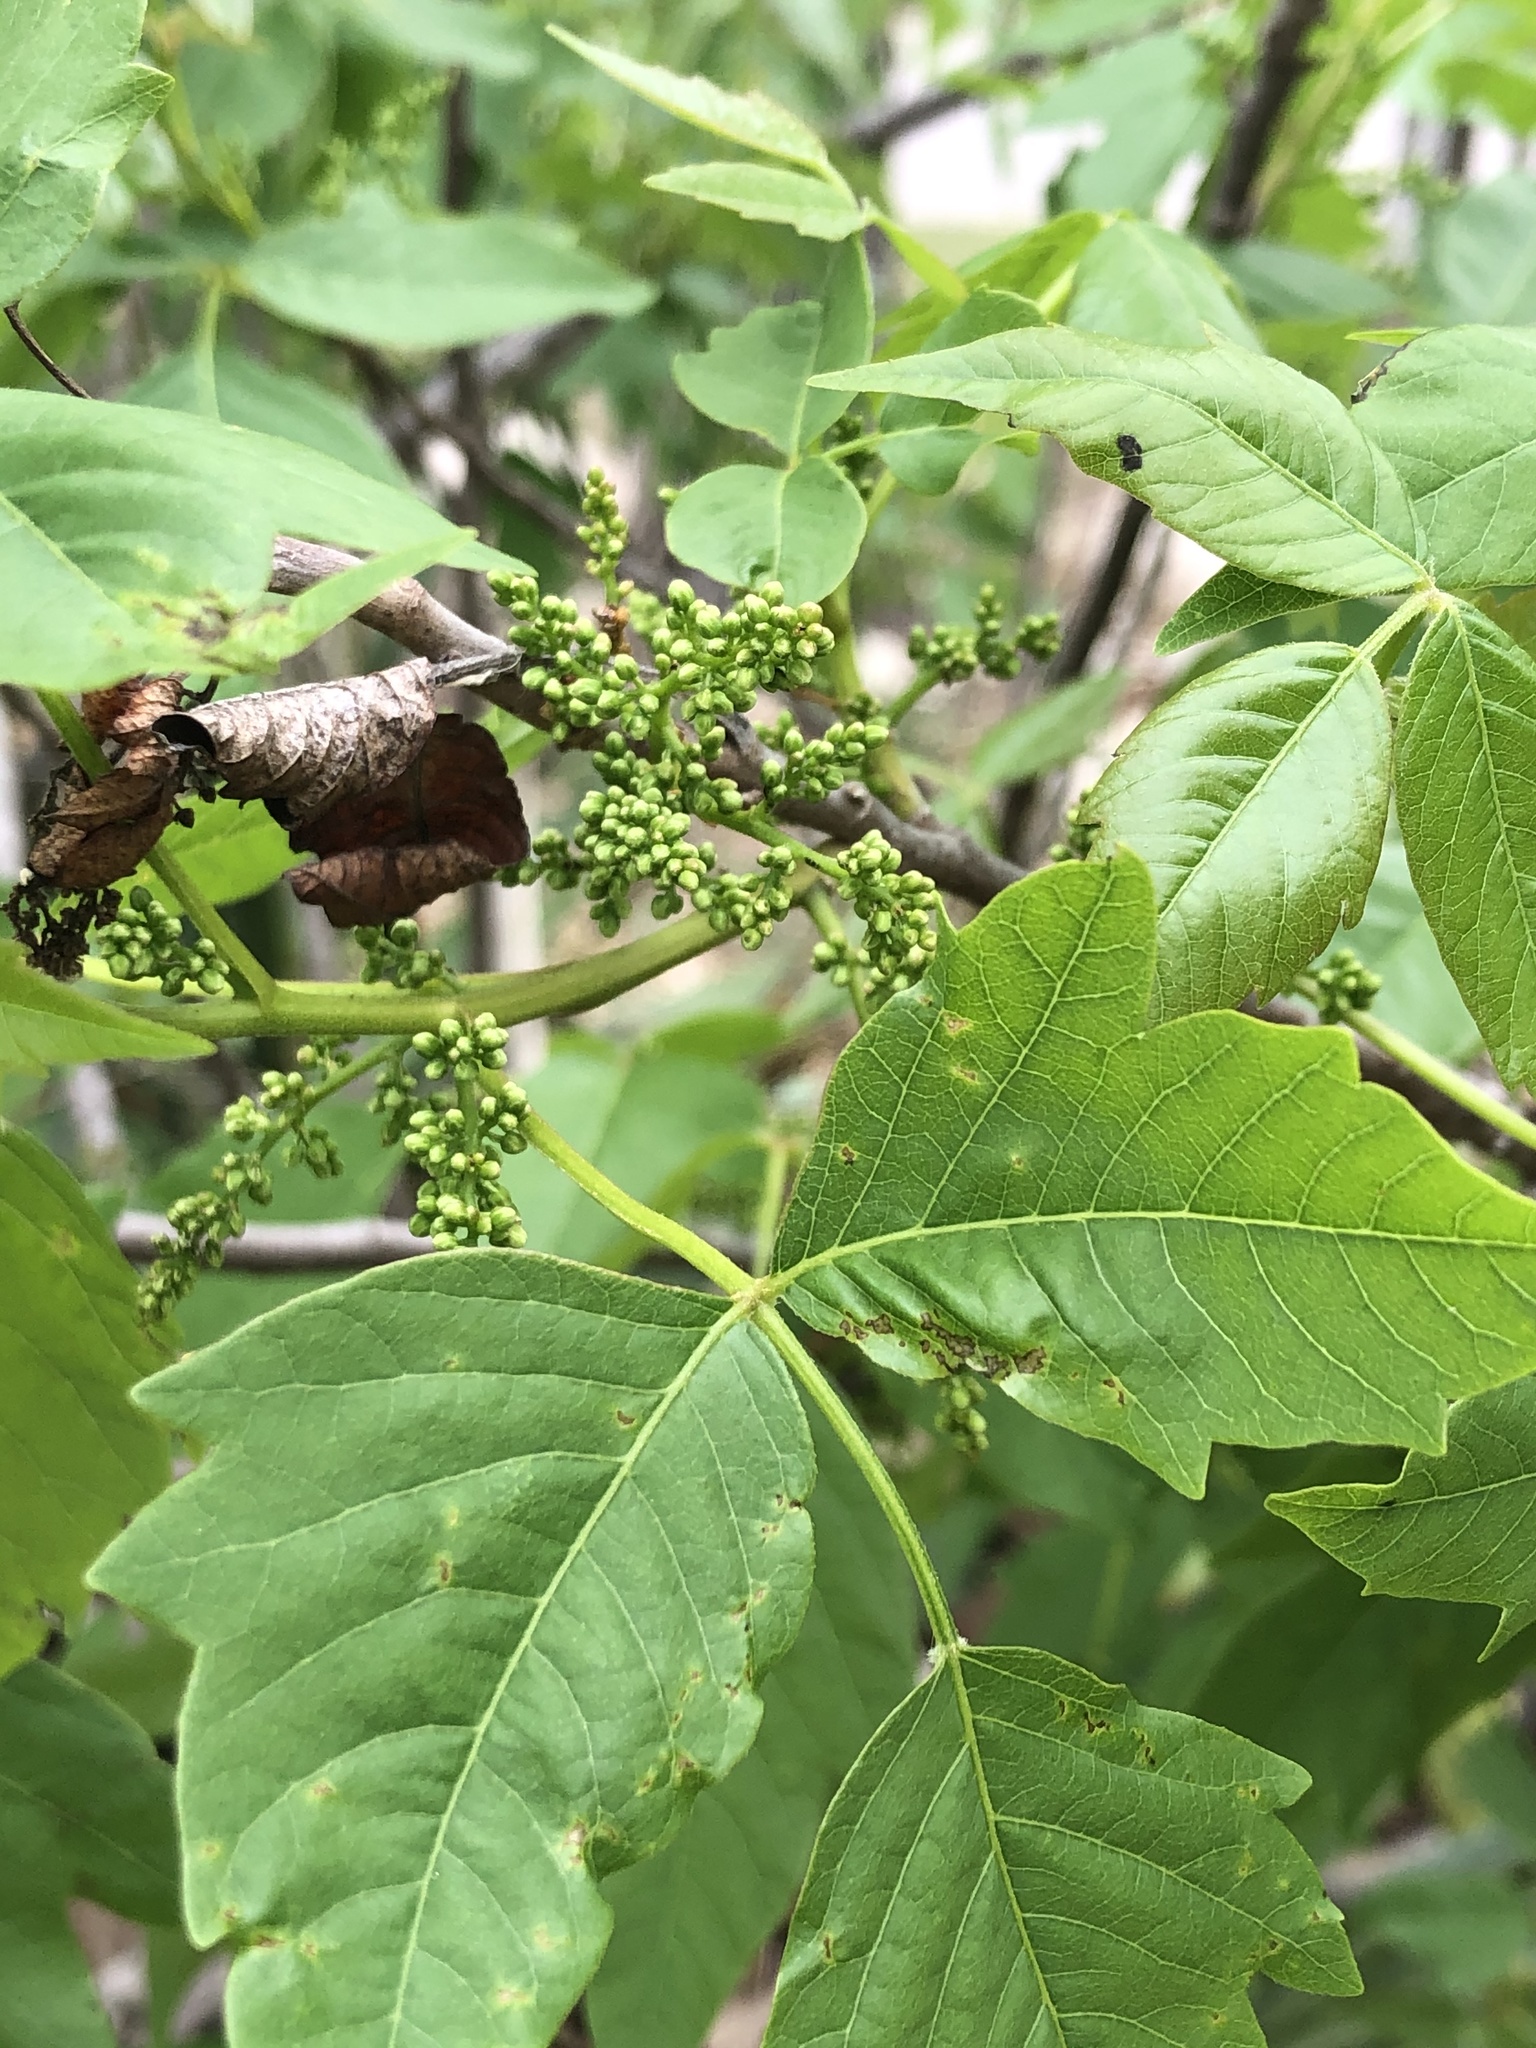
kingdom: Plantae
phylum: Tracheophyta
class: Magnoliopsida
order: Sapindales
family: Anacardiaceae
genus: Toxicodendron
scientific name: Toxicodendron radicans
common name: Poison ivy
